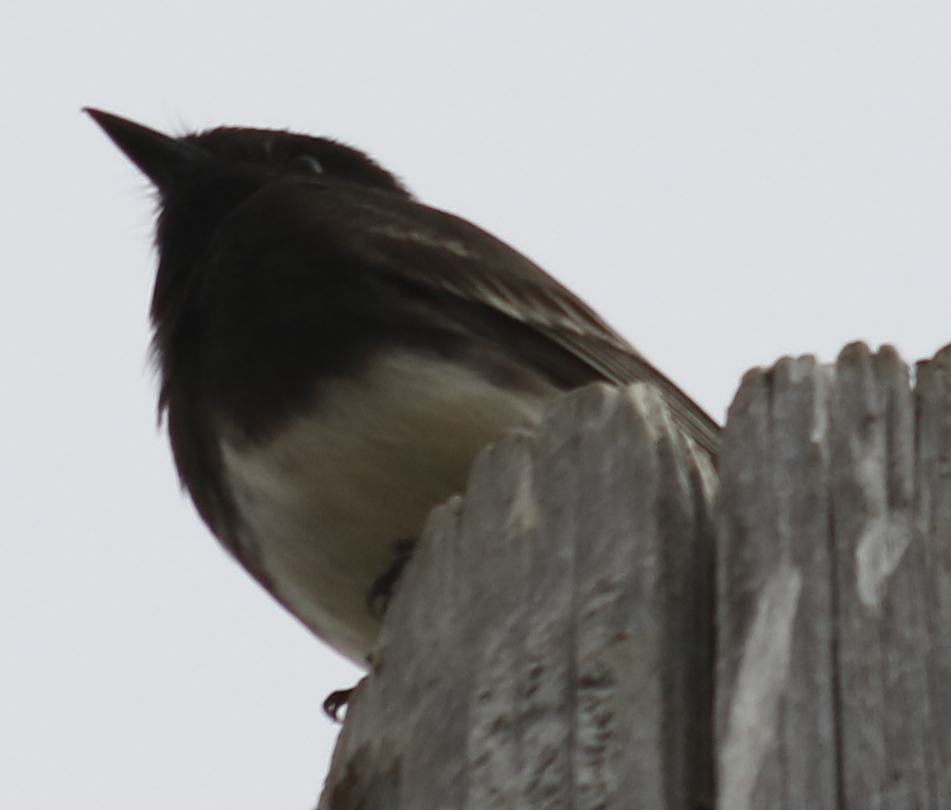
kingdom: Animalia
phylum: Chordata
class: Aves
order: Passeriformes
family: Tyrannidae
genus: Sayornis
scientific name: Sayornis nigricans
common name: Black phoebe
